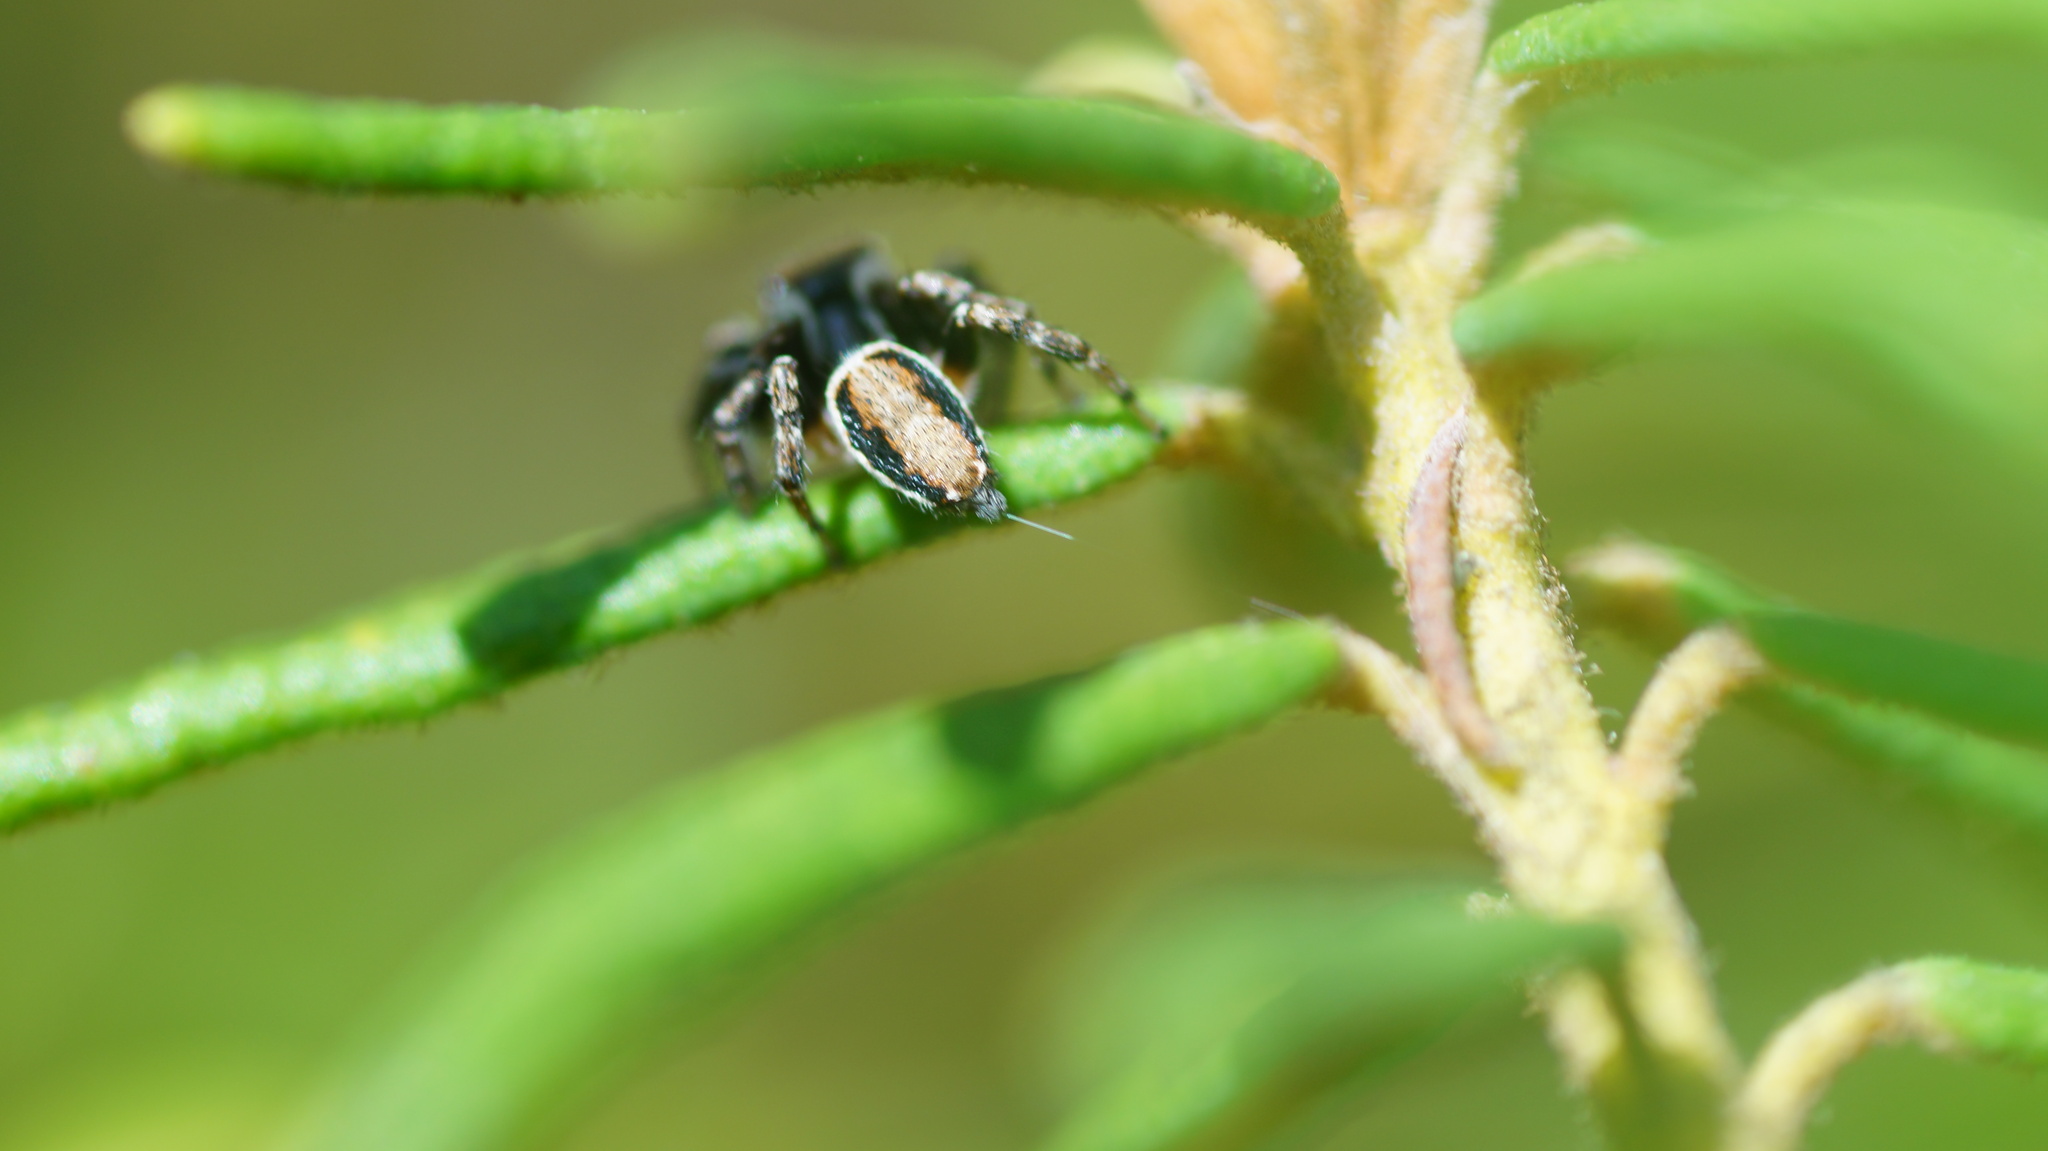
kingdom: Animalia
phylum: Arthropoda
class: Arachnida
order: Araneae
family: Salticidae
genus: Evarcha
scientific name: Evarcha falcata
